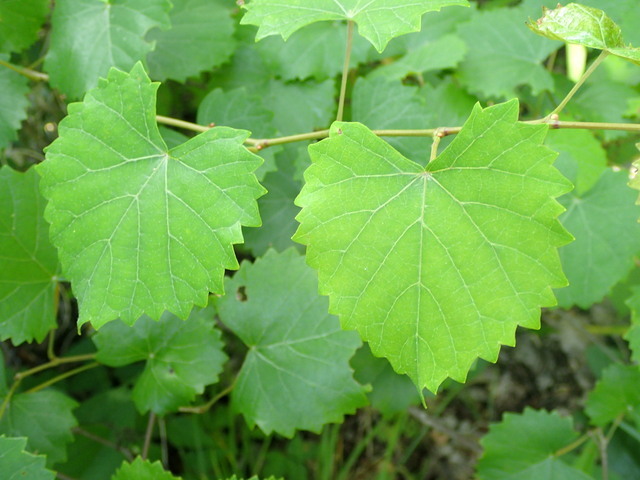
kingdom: Plantae
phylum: Tracheophyta
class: Magnoliopsida
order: Vitales
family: Vitaceae
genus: Vitis
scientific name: Vitis rotundifolia
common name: Muscadine grape
